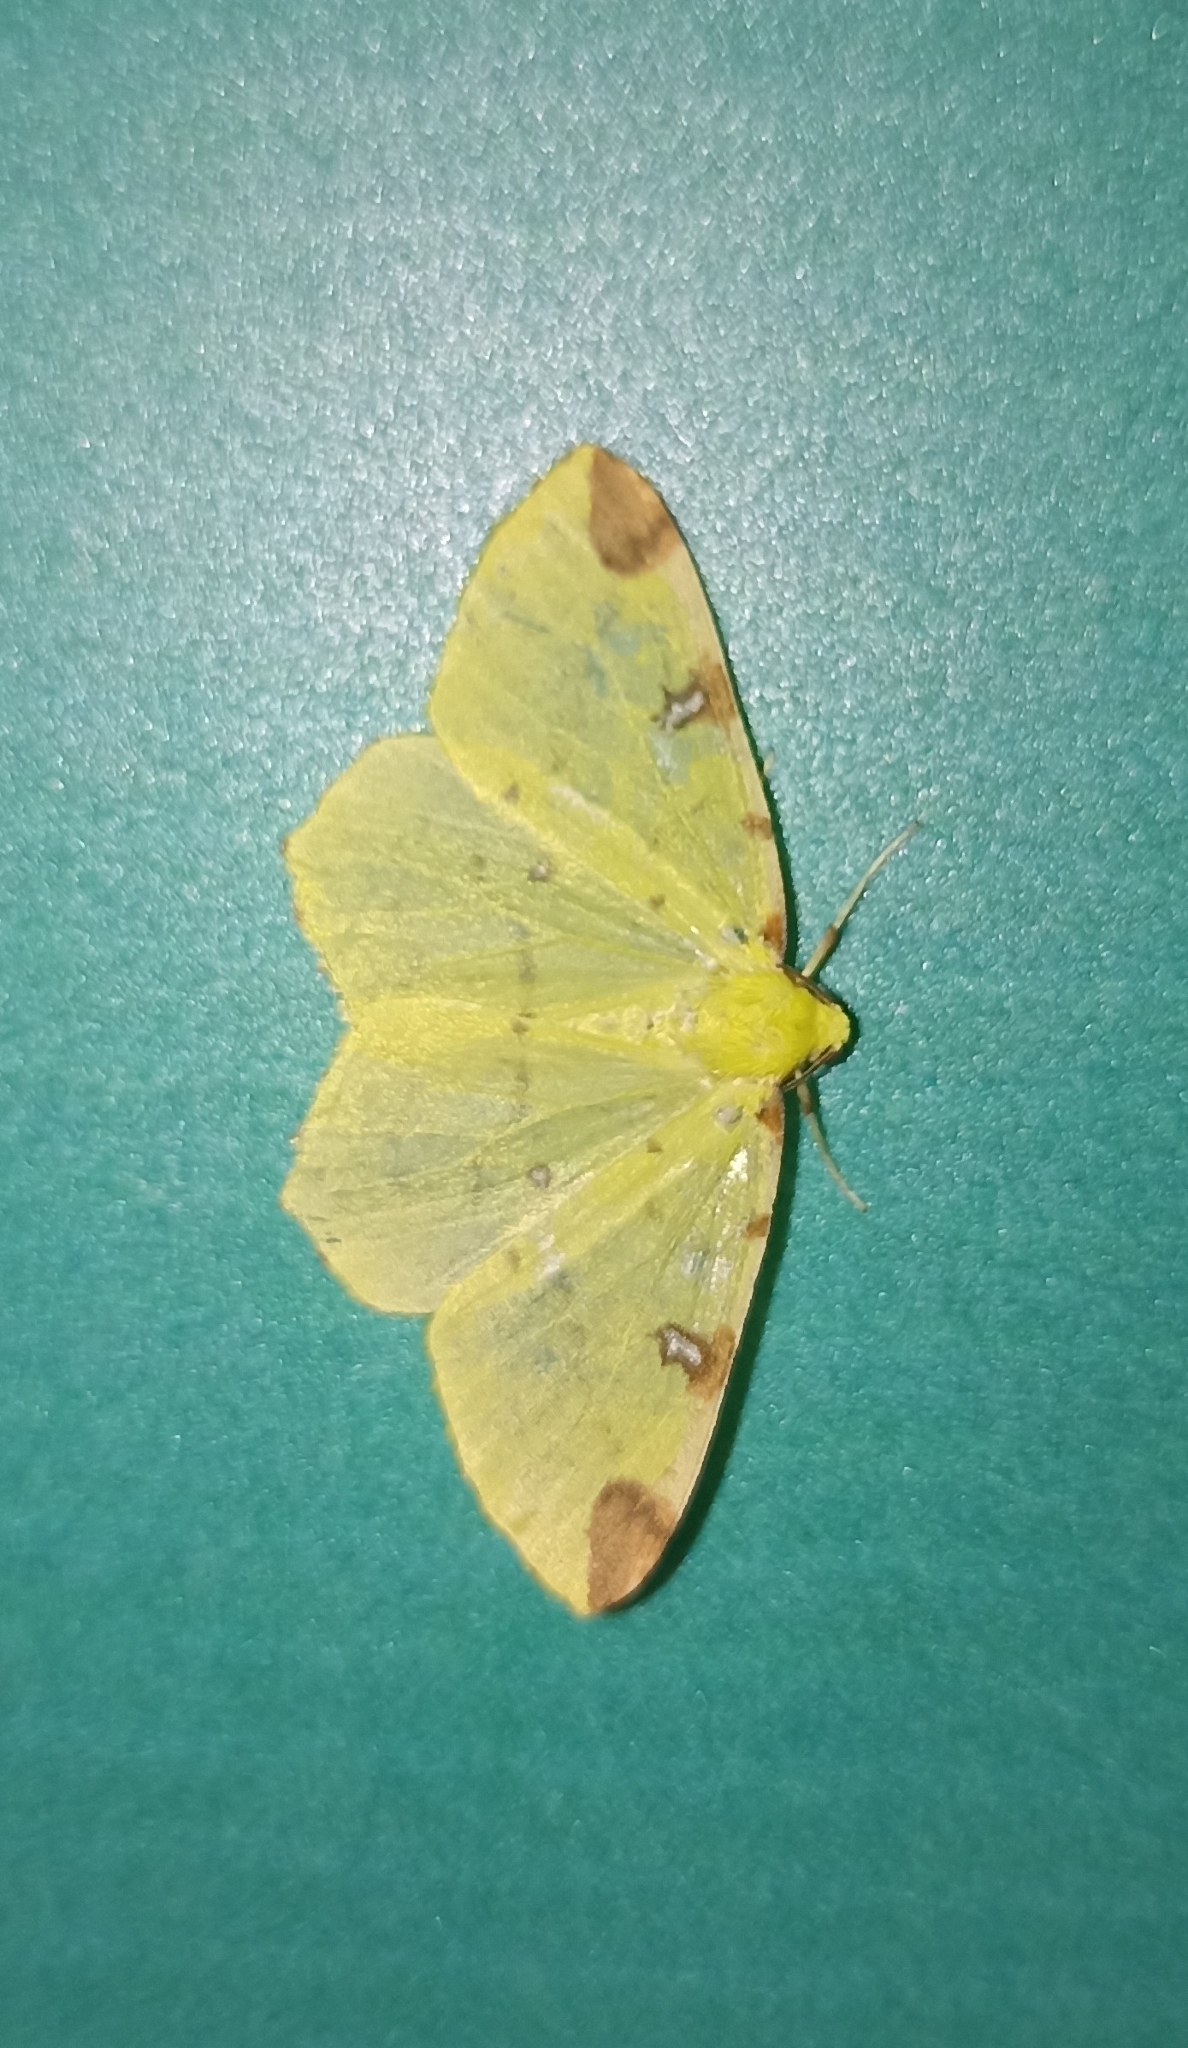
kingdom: Animalia
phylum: Arthropoda
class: Insecta
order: Lepidoptera
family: Geometridae
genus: Opisthograptis
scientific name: Opisthograptis luteolata
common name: Brimstone moth
